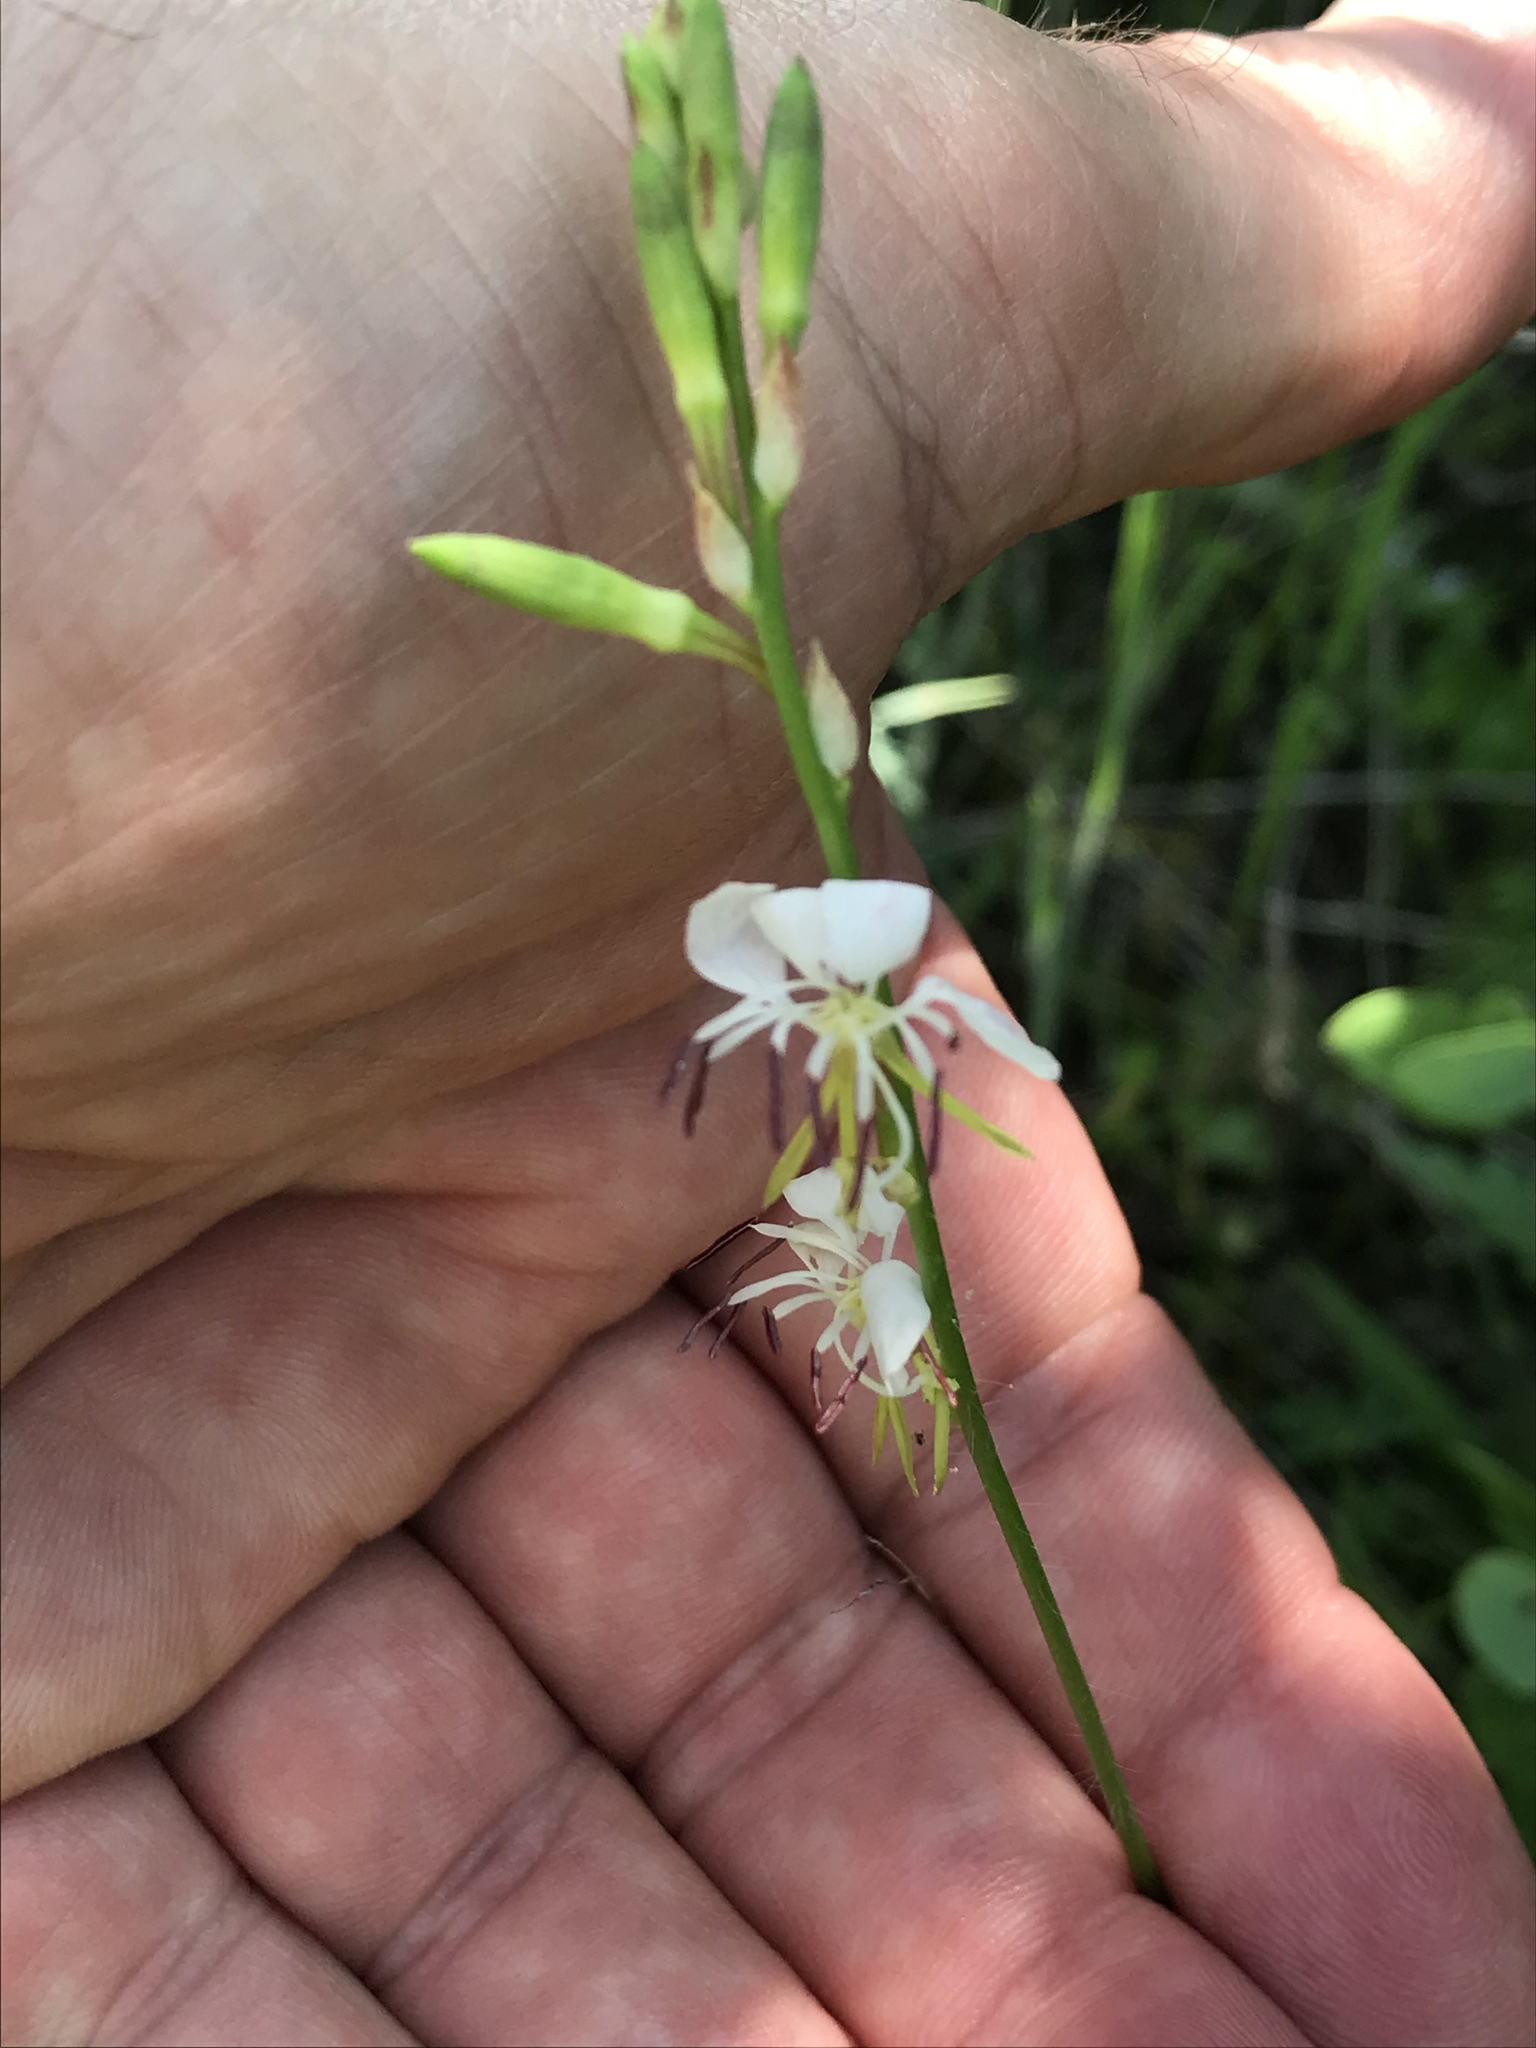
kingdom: Plantae
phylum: Tracheophyta
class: Magnoliopsida
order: Myrtales
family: Onagraceae
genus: Oenothera
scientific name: Oenothera suffulta
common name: Kisses
